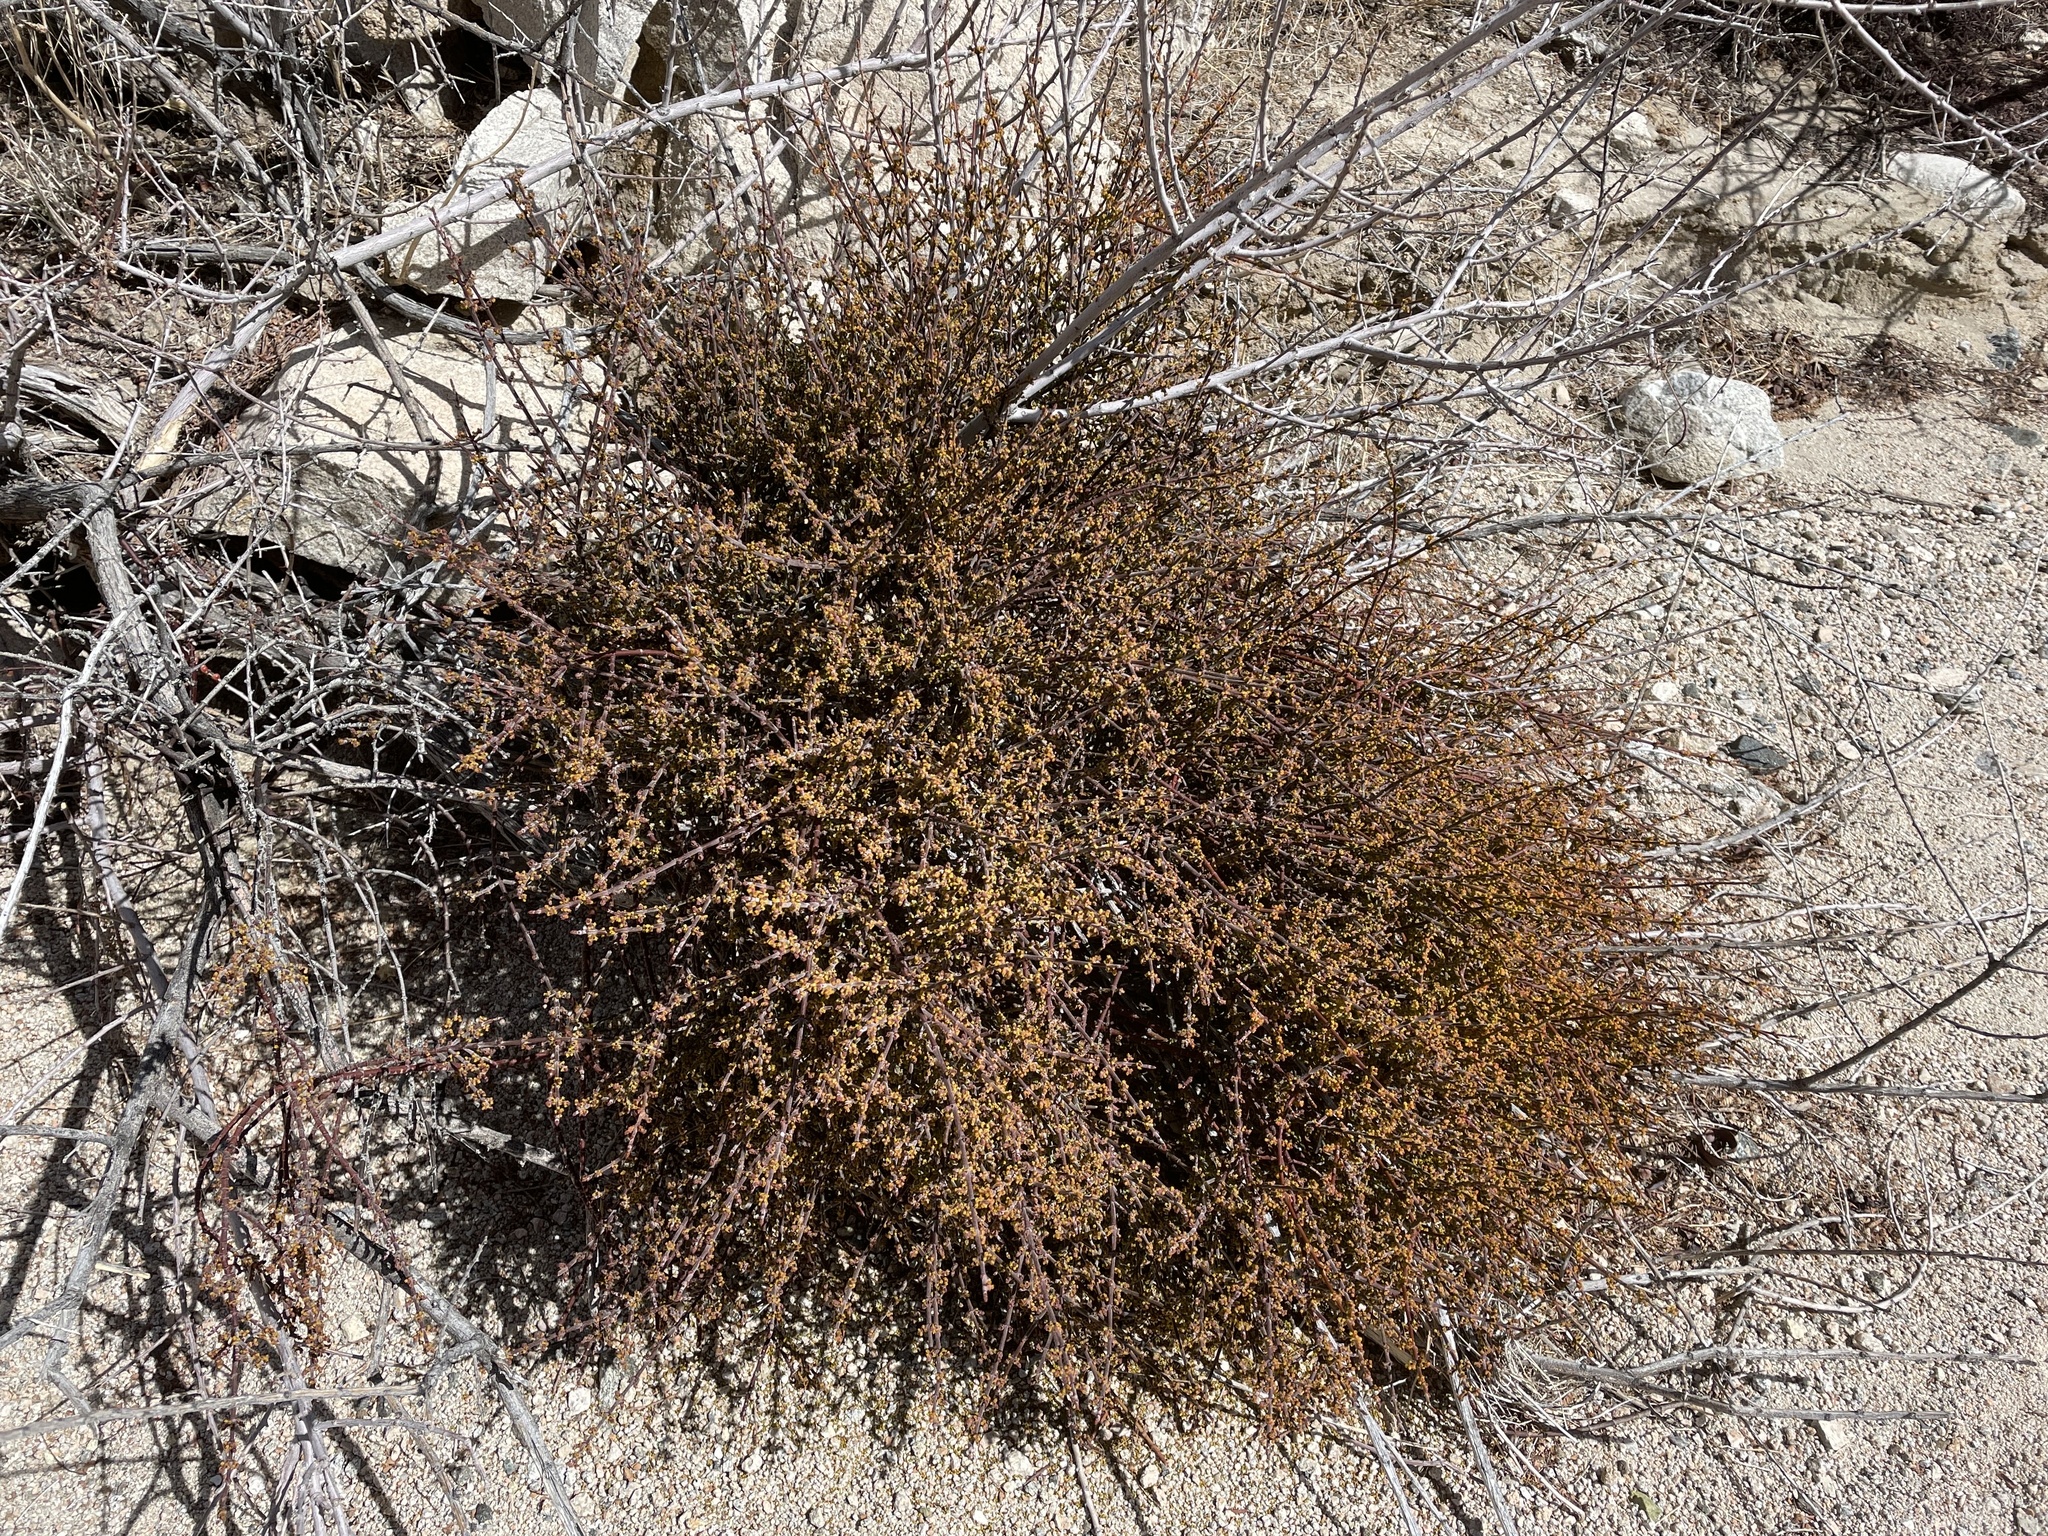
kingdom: Plantae
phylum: Tracheophyta
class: Magnoliopsida
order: Santalales
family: Viscaceae
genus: Phoradendron
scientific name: Phoradendron californicum
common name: Acacia mistletoe
